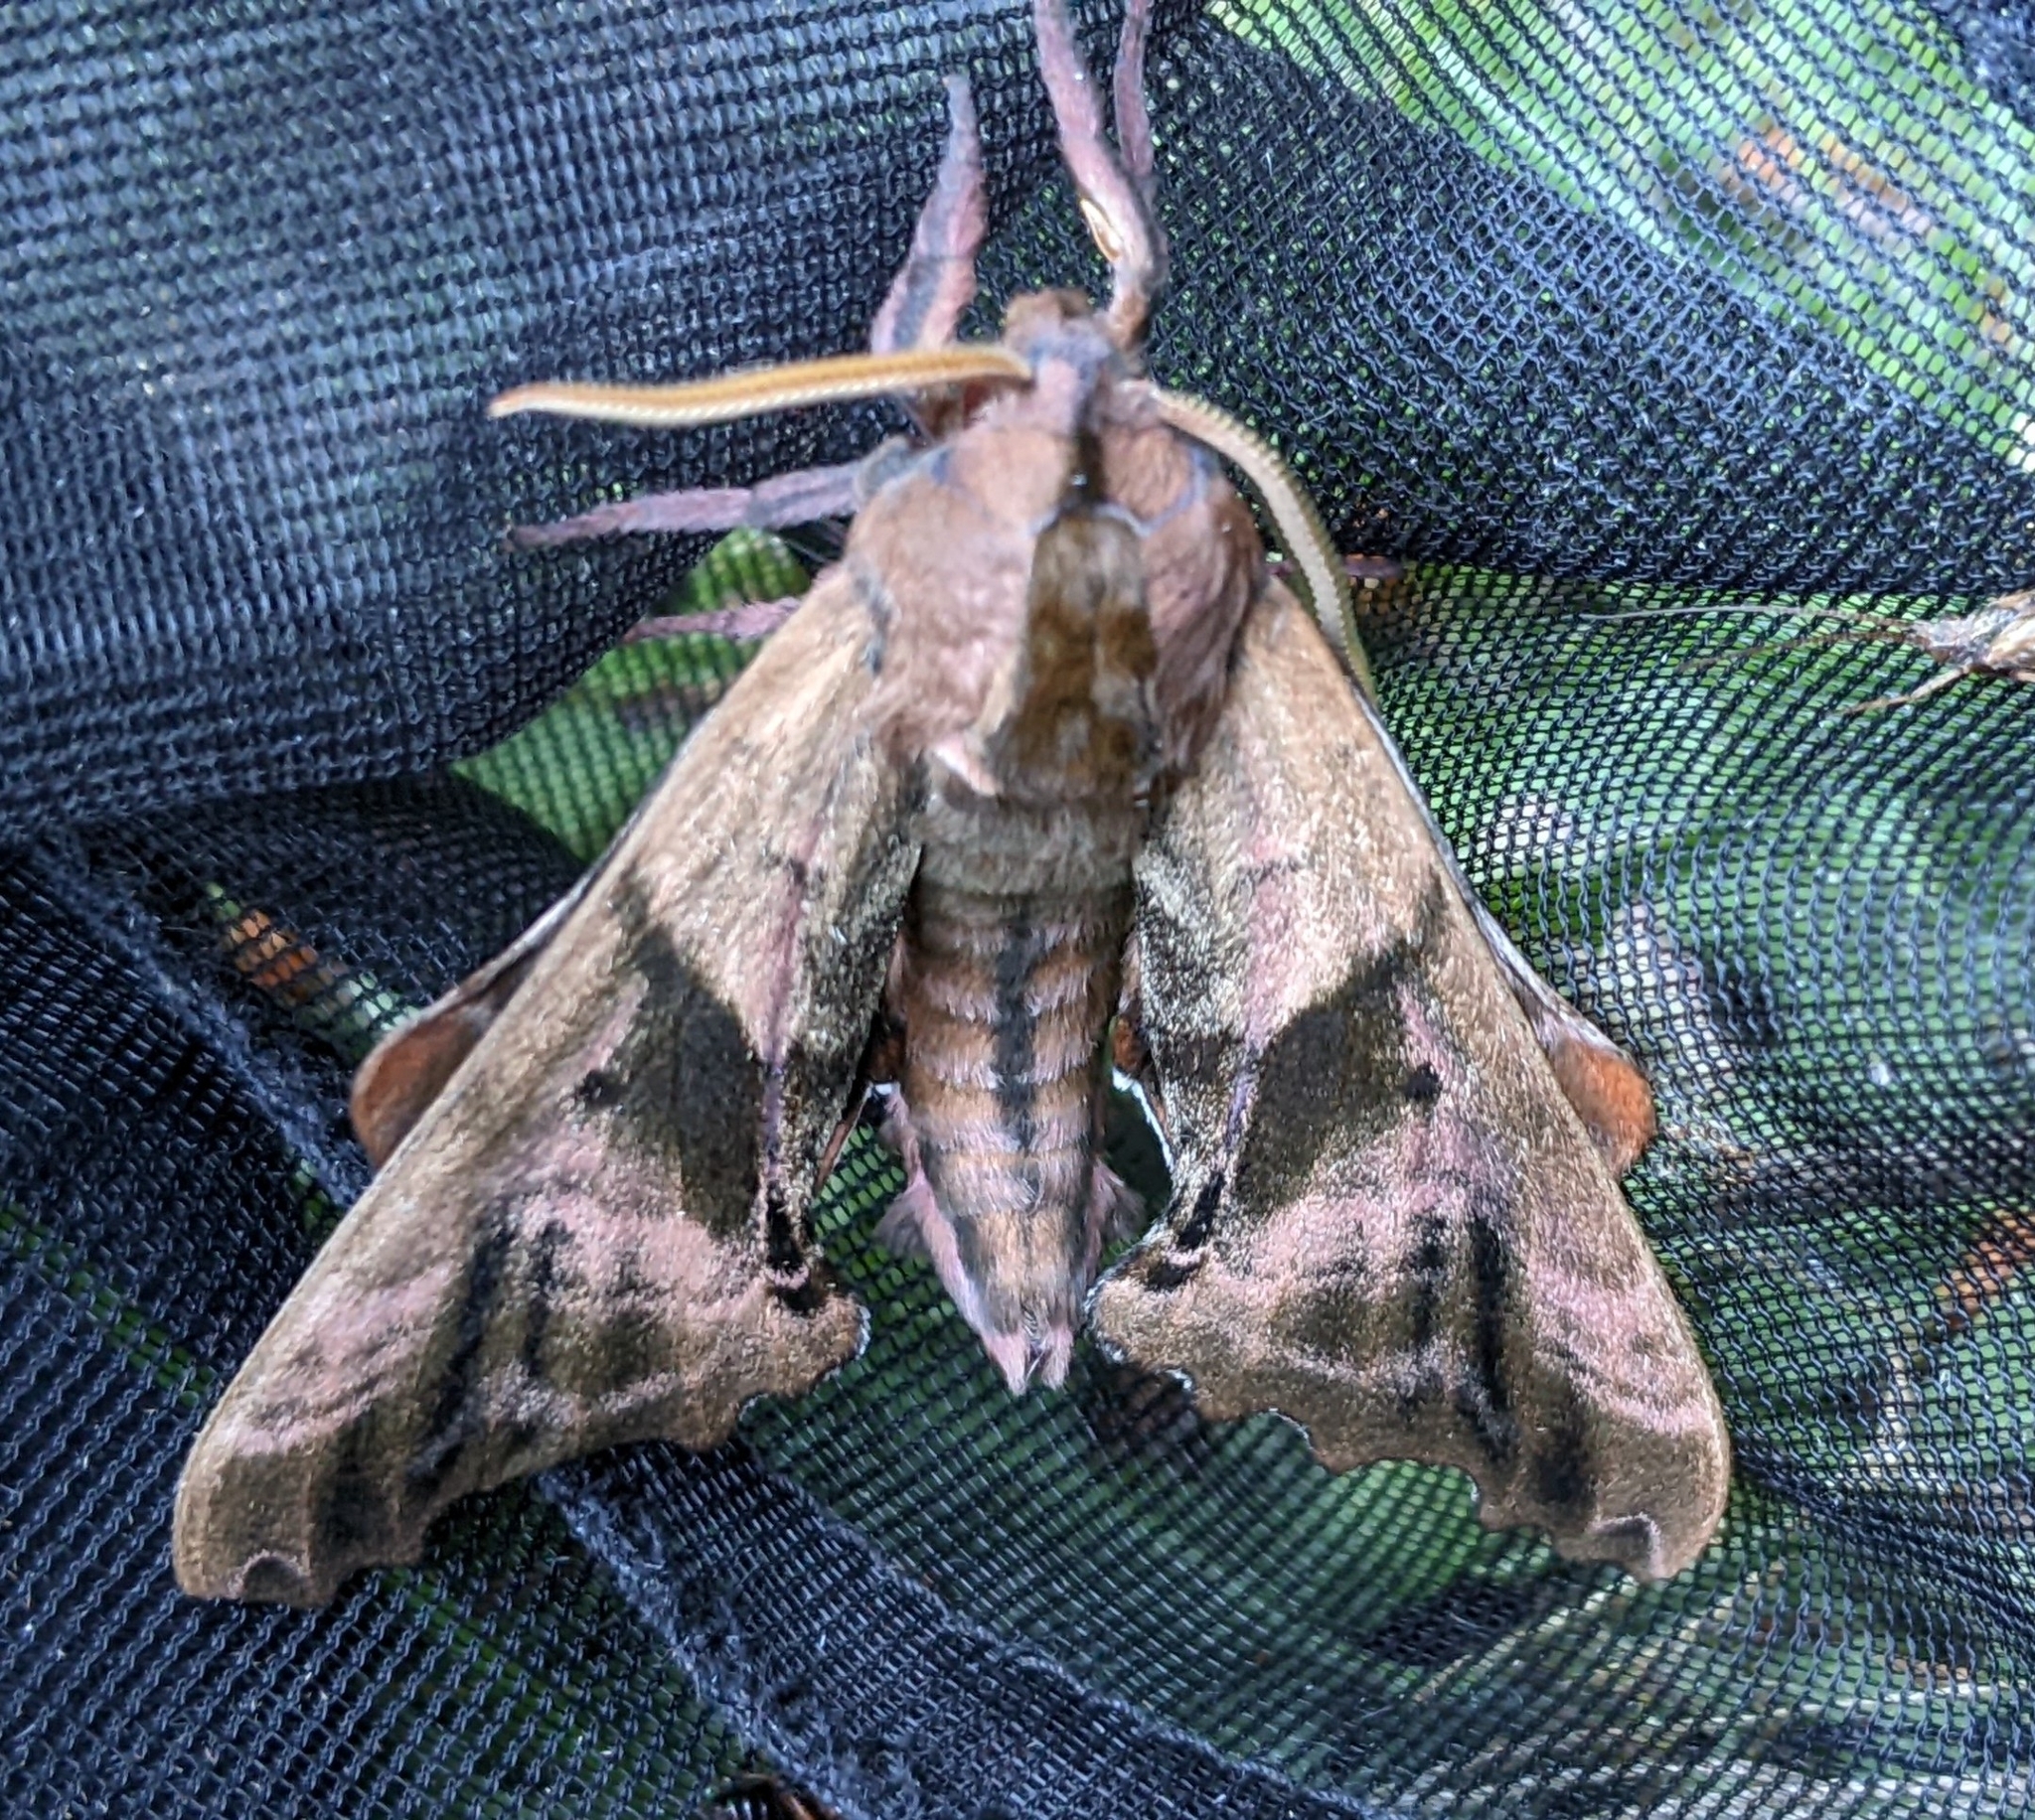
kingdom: Animalia
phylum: Arthropoda
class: Insecta
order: Lepidoptera
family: Sphingidae
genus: Paonias
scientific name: Paonias excaecata
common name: Blind-eyed sphinx
